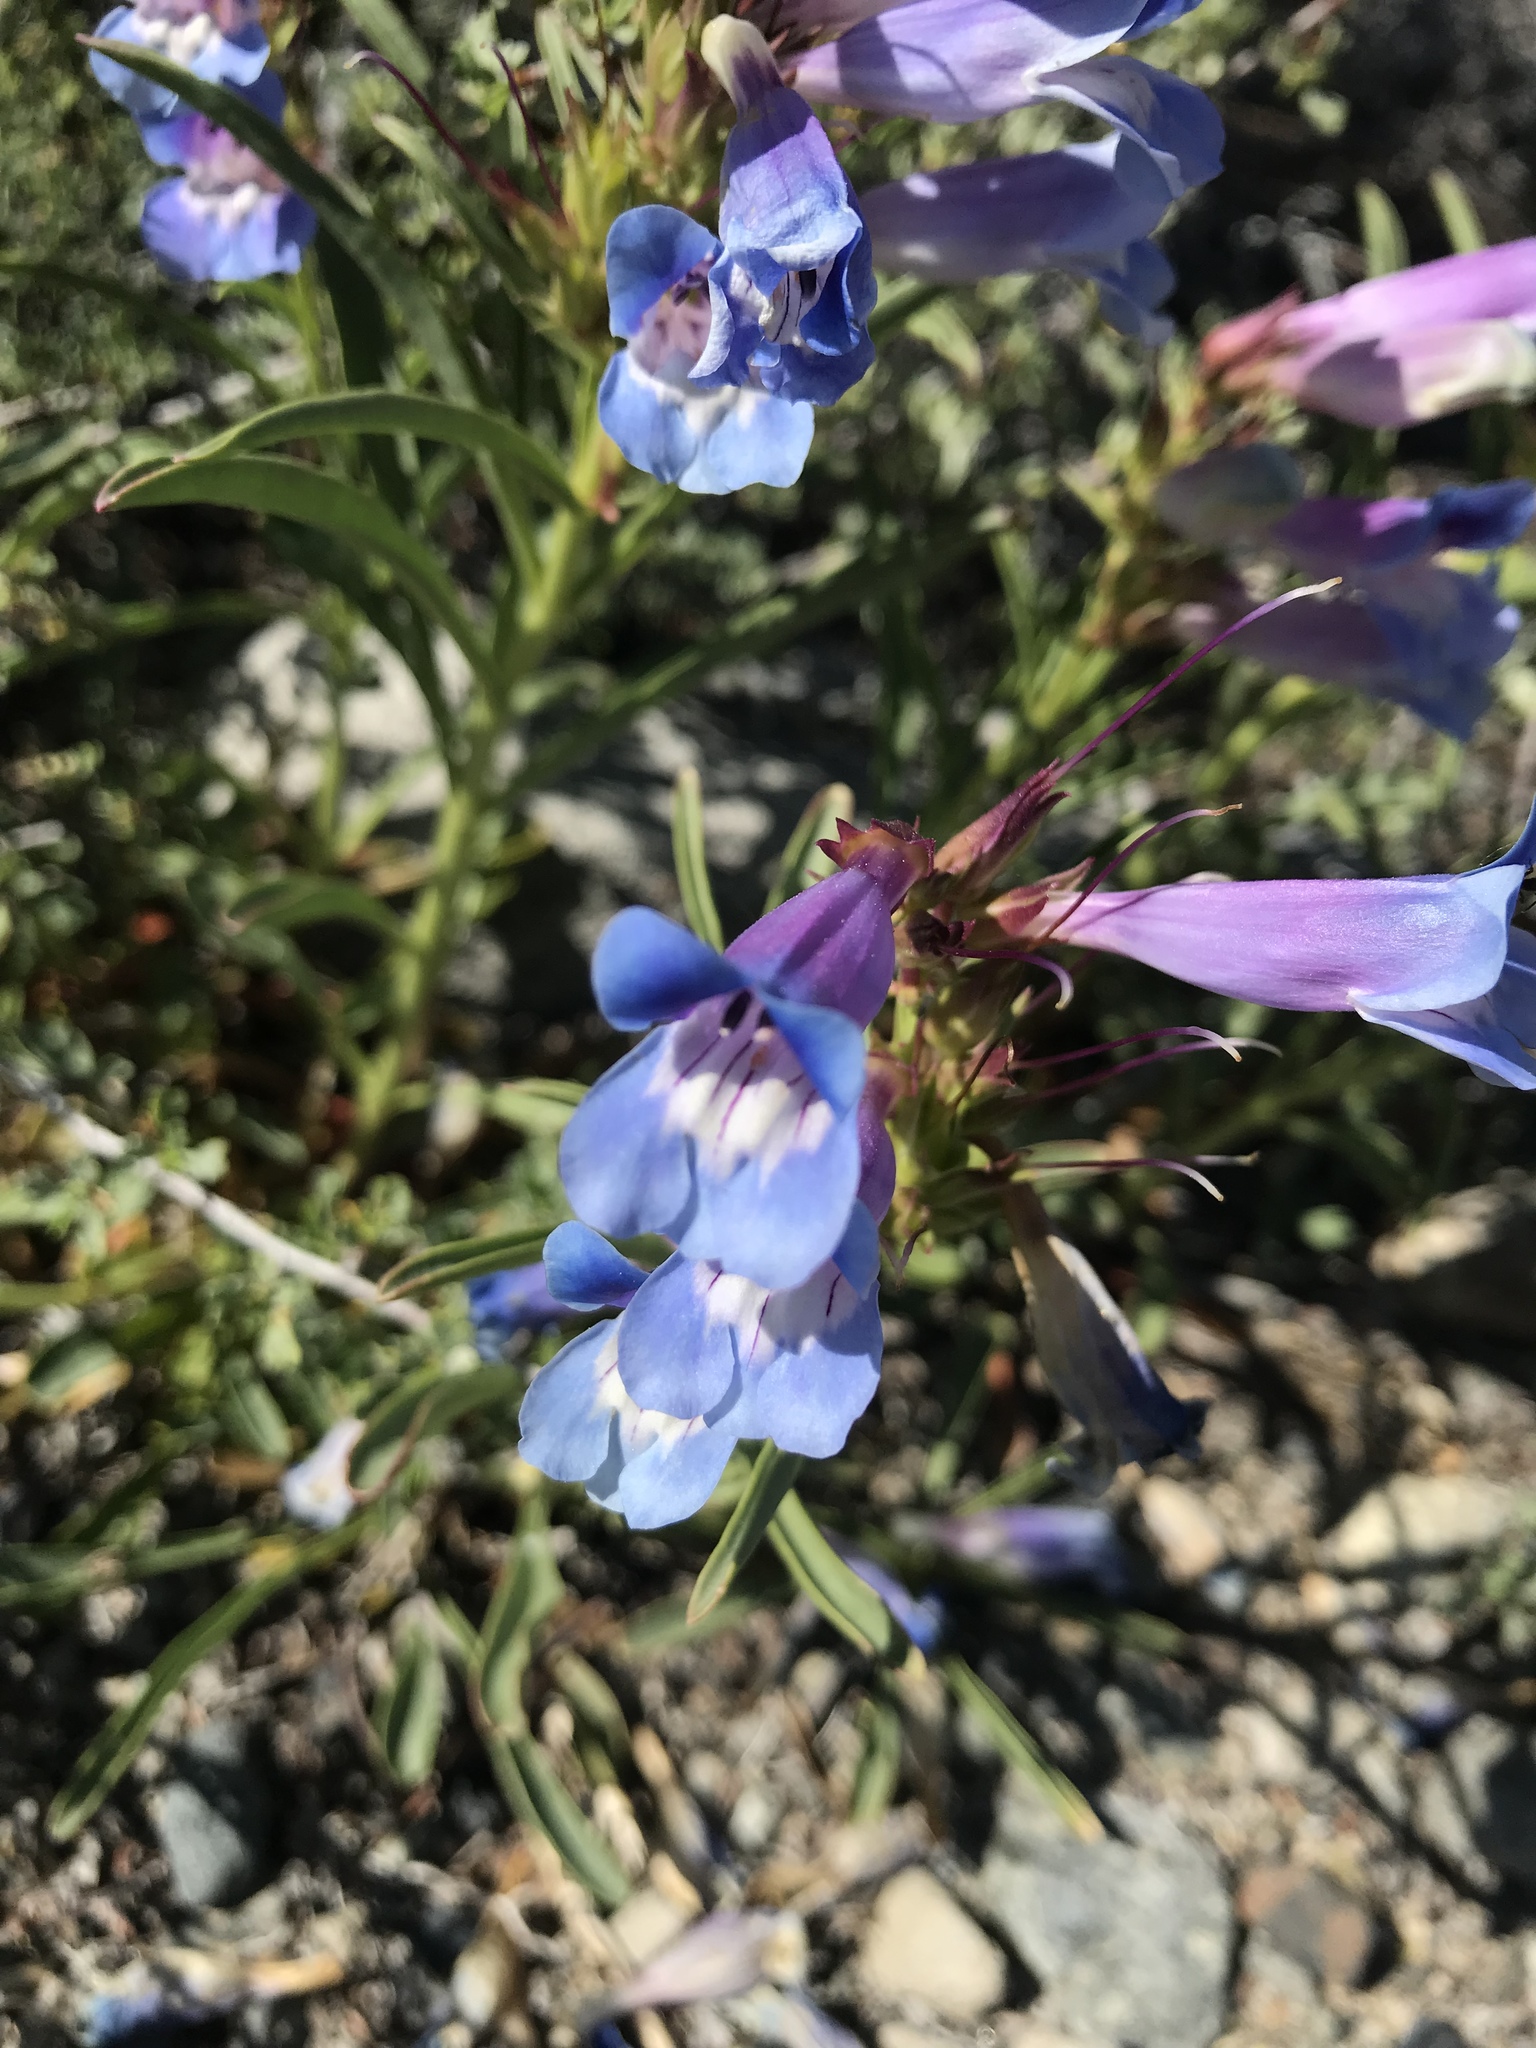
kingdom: Plantae
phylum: Tracheophyta
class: Magnoliopsida
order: Lamiales
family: Plantaginaceae
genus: Penstemon
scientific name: Penstemon speciosus
